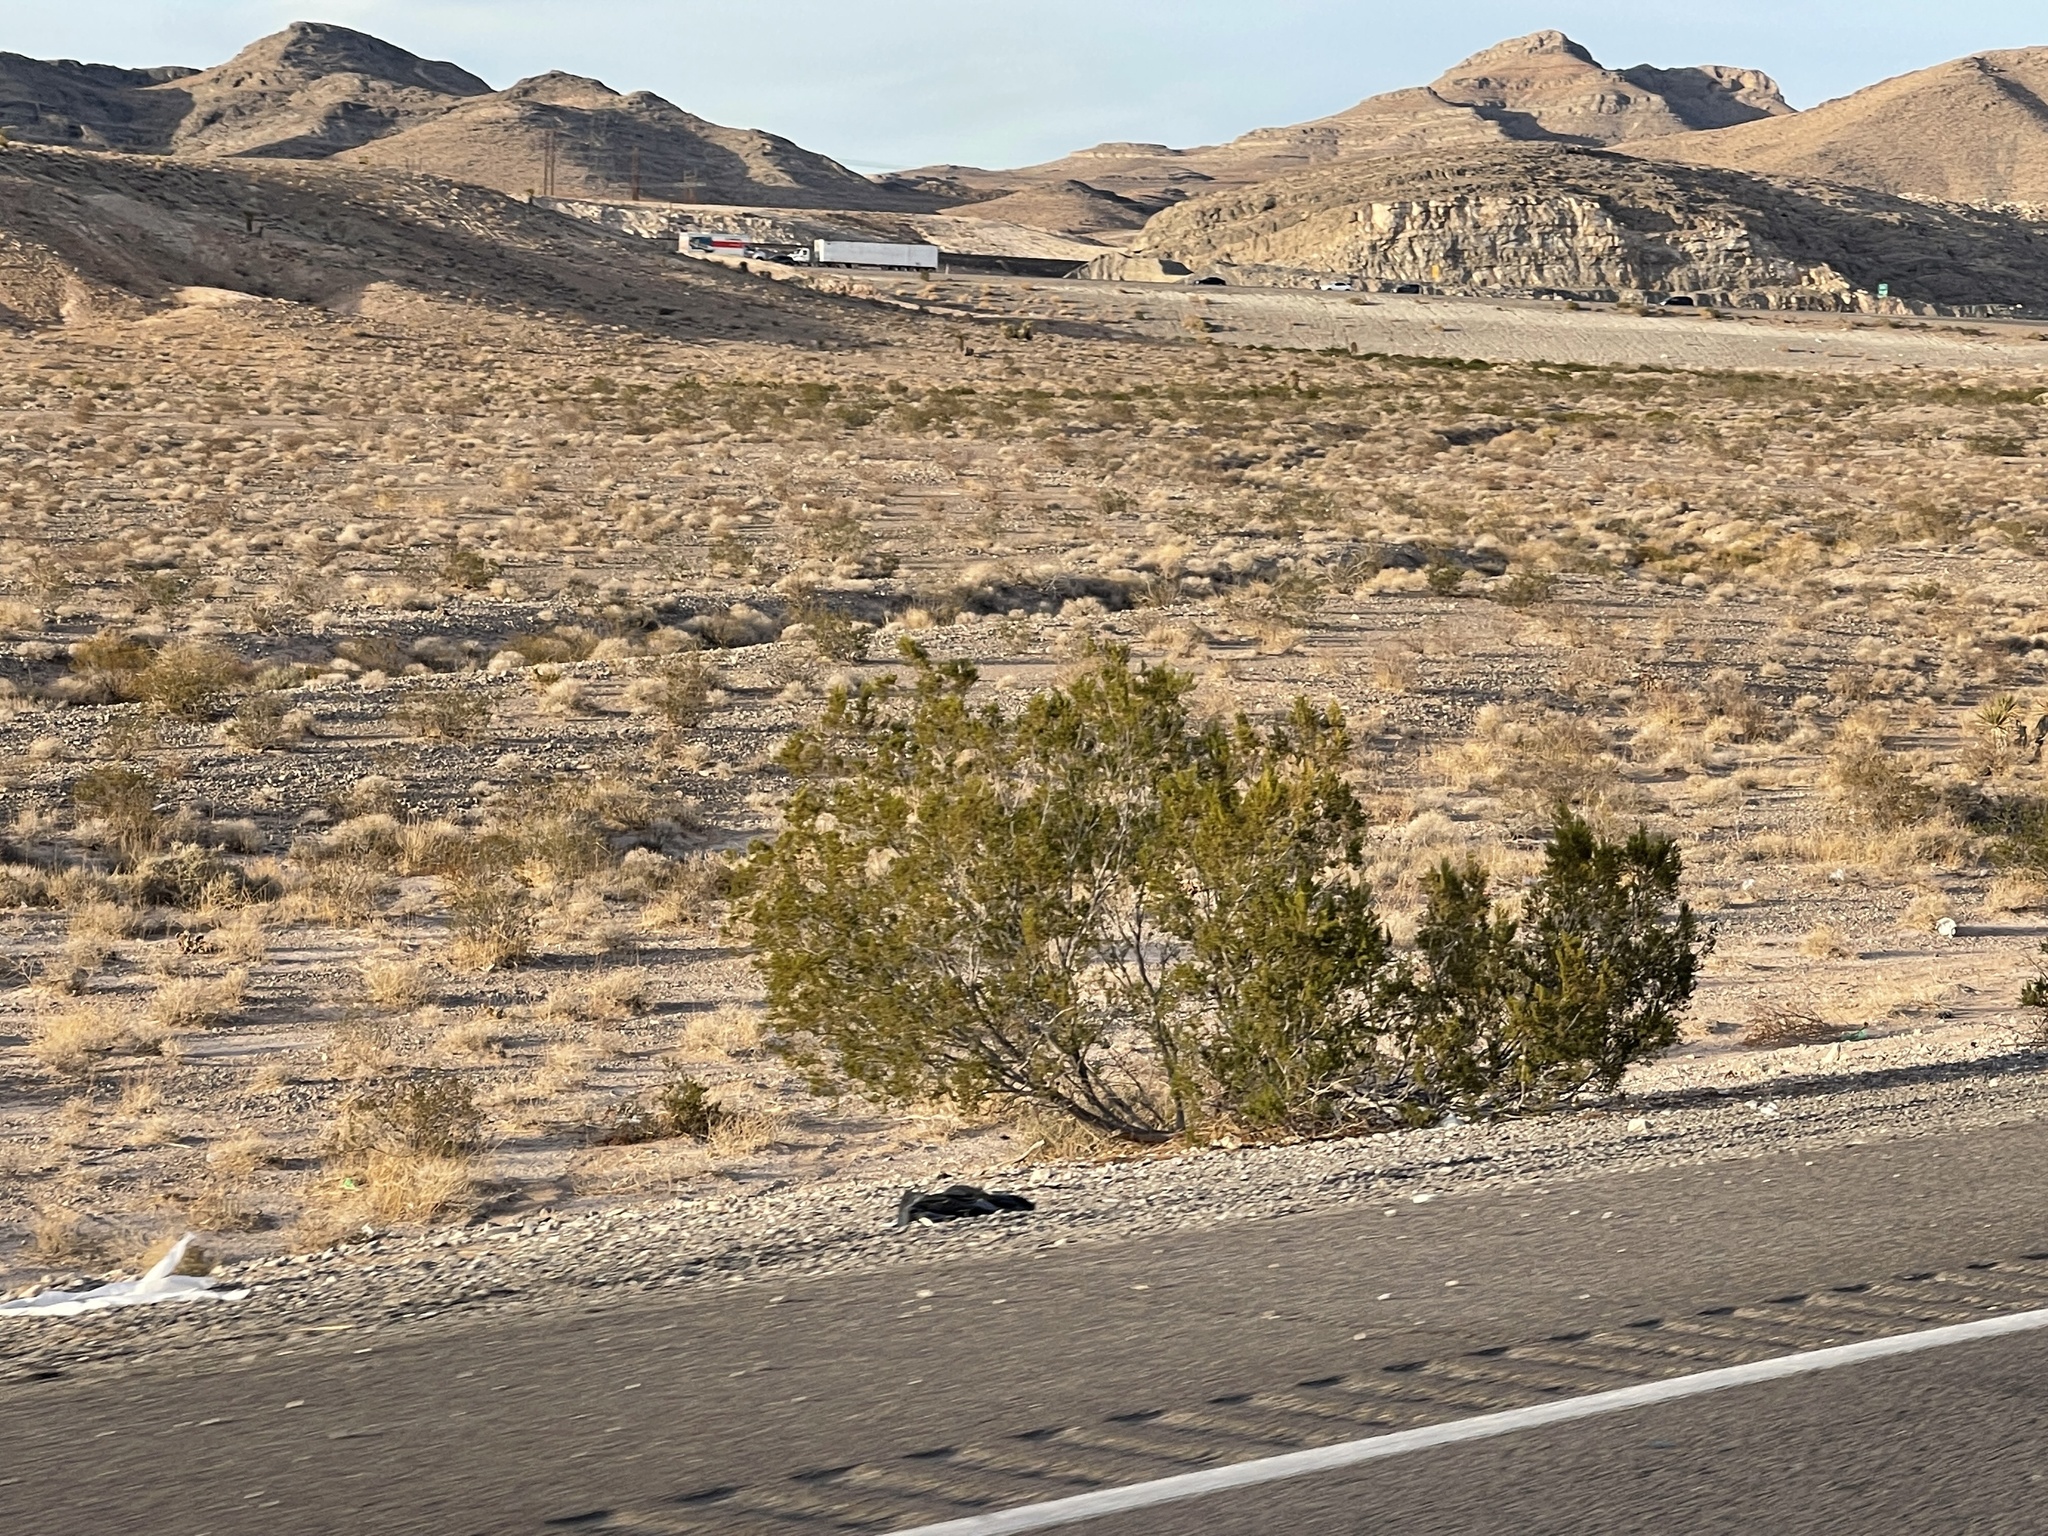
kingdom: Plantae
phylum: Tracheophyta
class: Magnoliopsida
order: Zygophyllales
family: Zygophyllaceae
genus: Larrea
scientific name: Larrea tridentata
